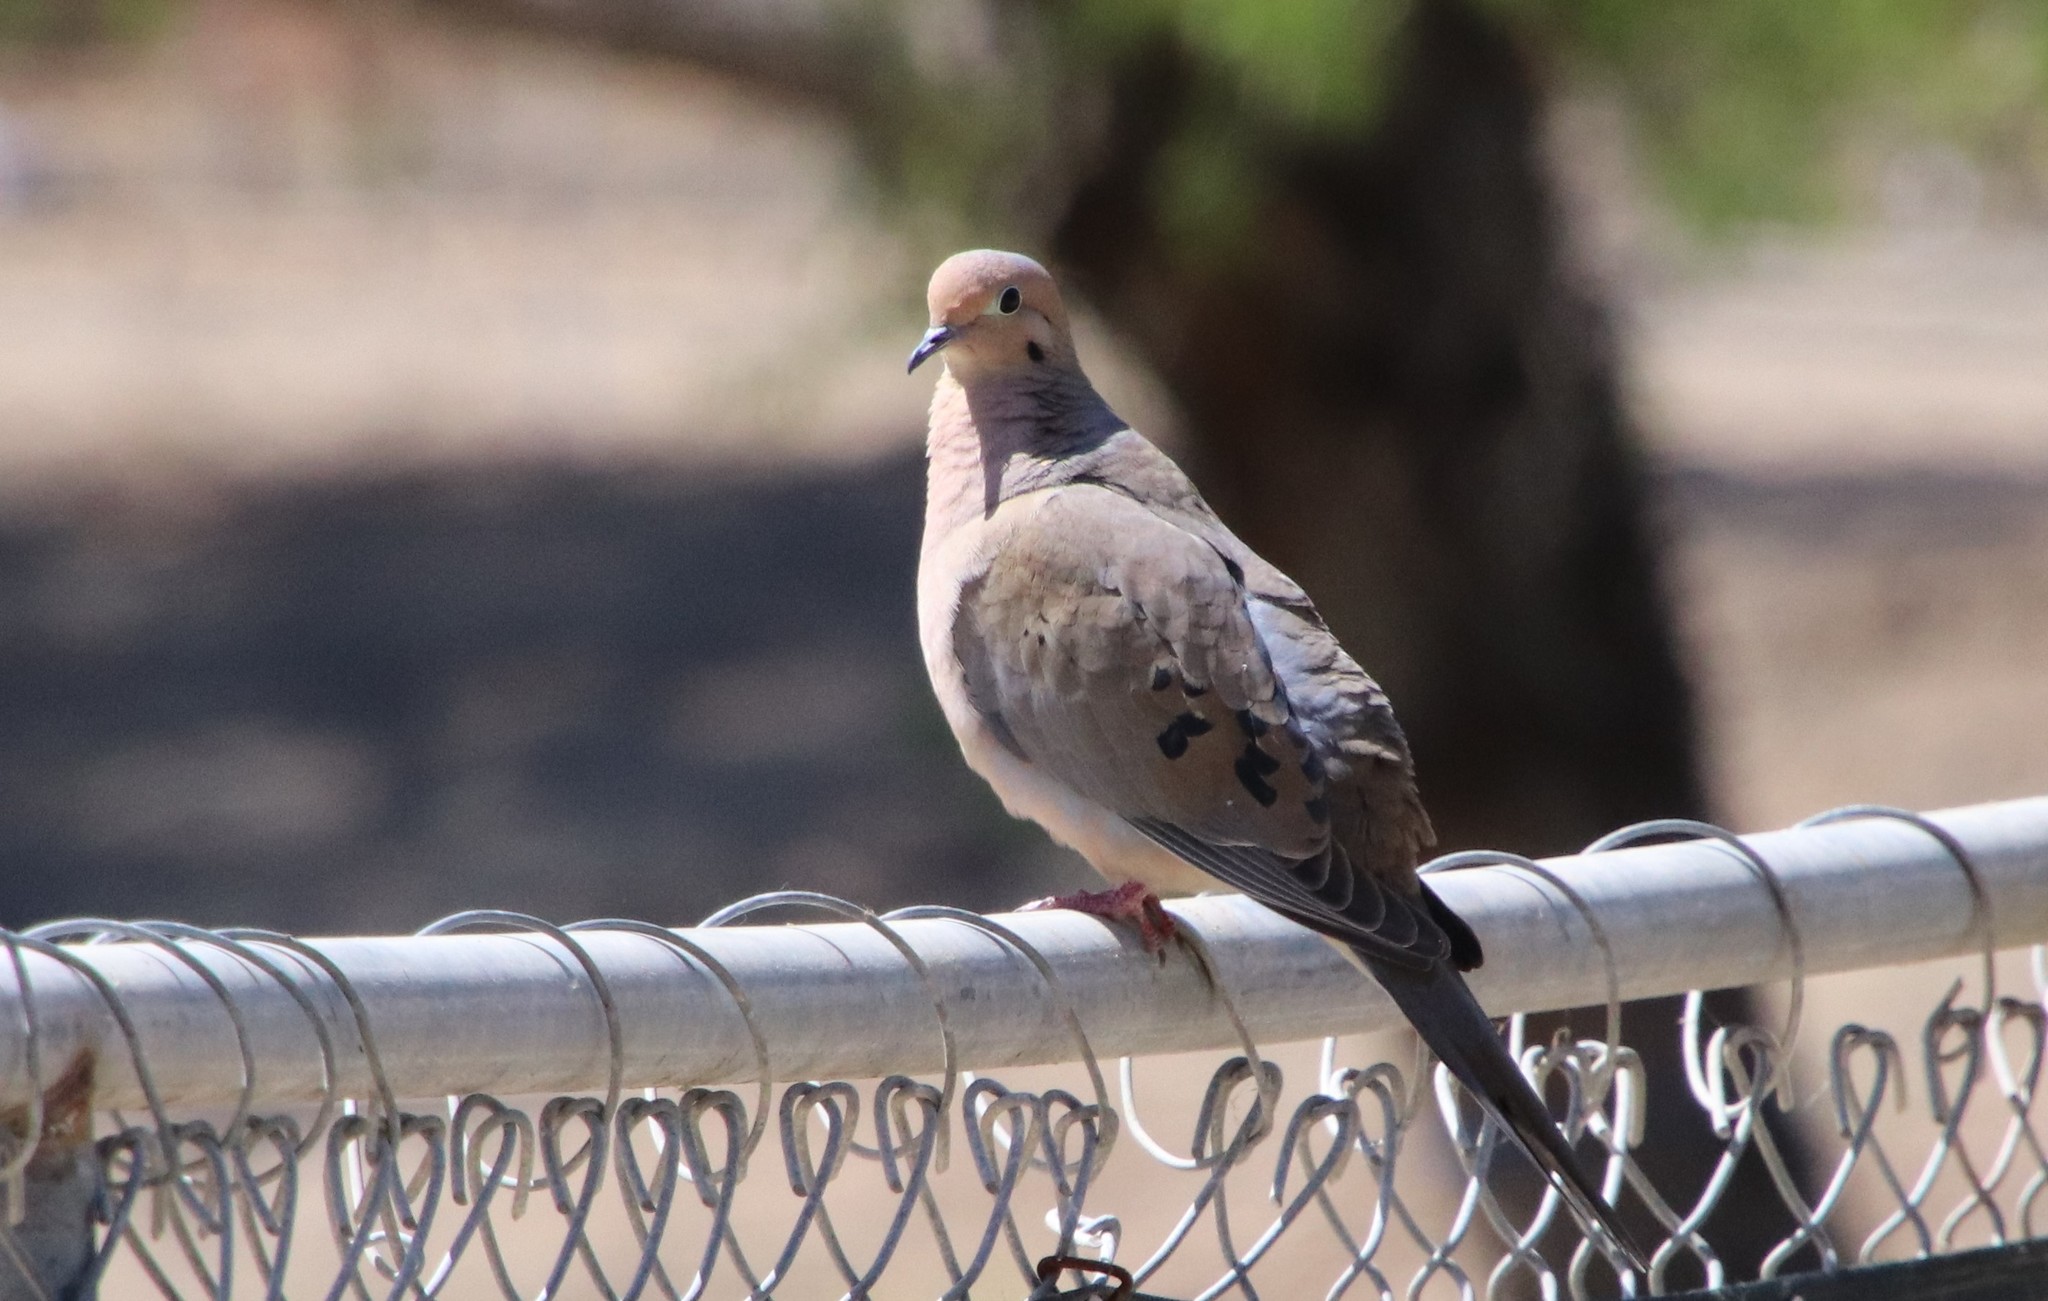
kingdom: Animalia
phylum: Chordata
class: Aves
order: Columbiformes
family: Columbidae
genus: Zenaida
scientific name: Zenaida macroura
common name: Mourning dove
